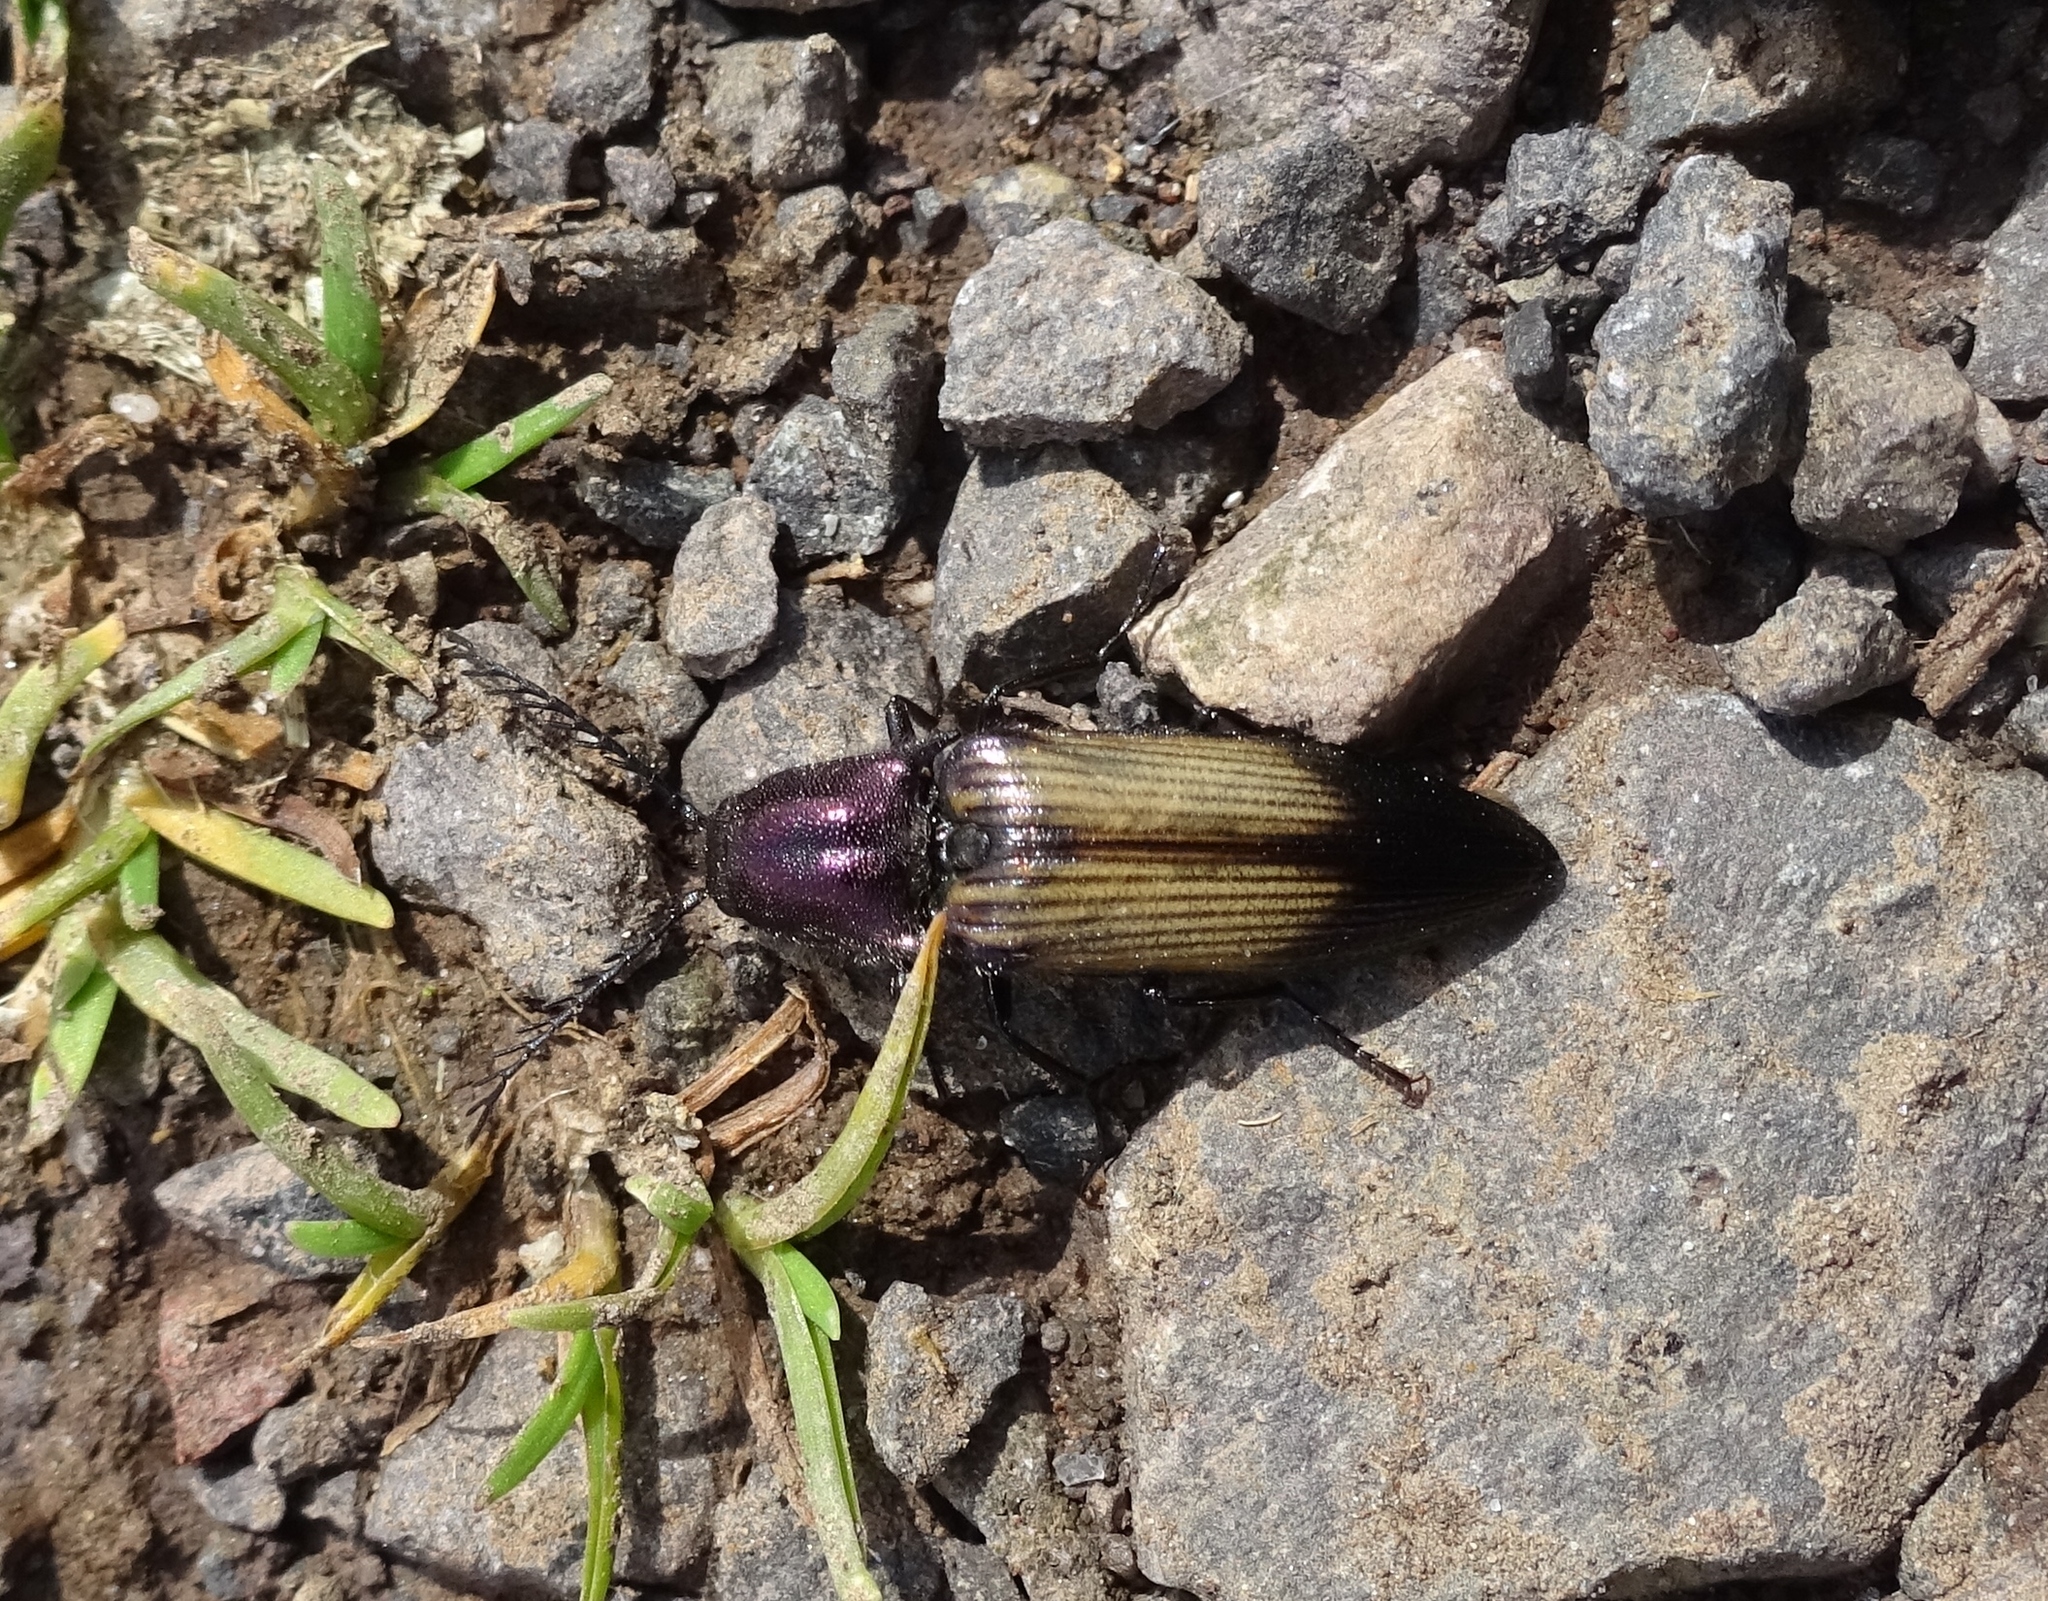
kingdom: Animalia
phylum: Arthropoda
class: Insecta
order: Coleoptera
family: Elateridae
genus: Ctenicera
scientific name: Ctenicera cuprea
